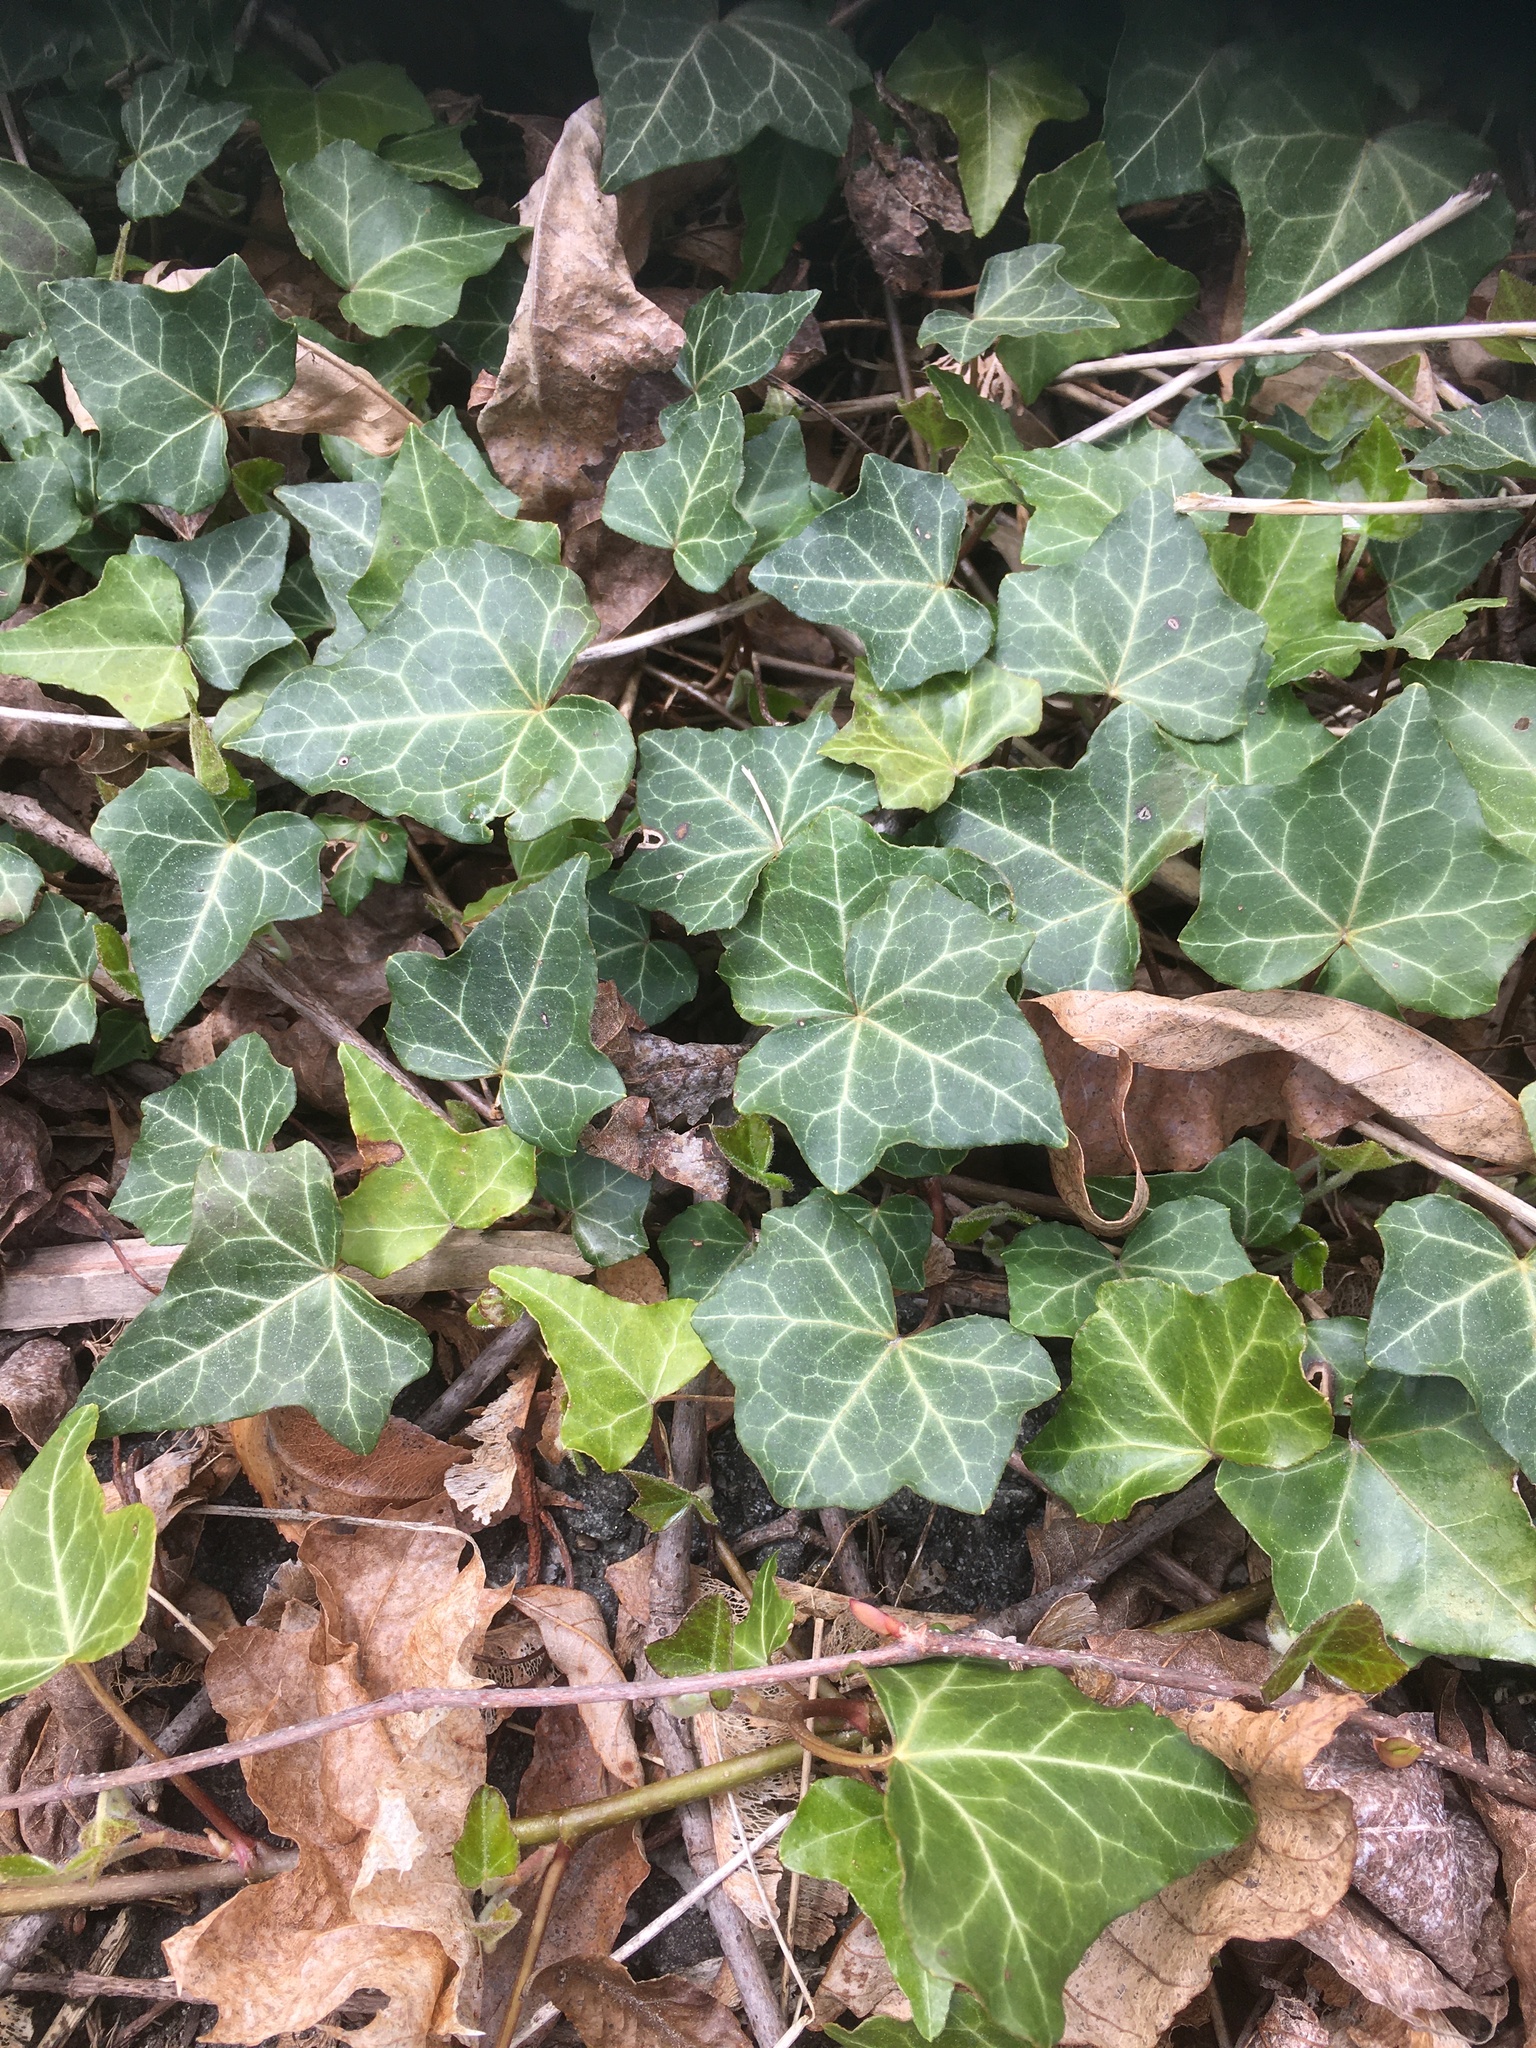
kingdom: Plantae
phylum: Tracheophyta
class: Magnoliopsida
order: Apiales
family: Araliaceae
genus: Hedera
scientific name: Hedera helix
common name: Ivy
